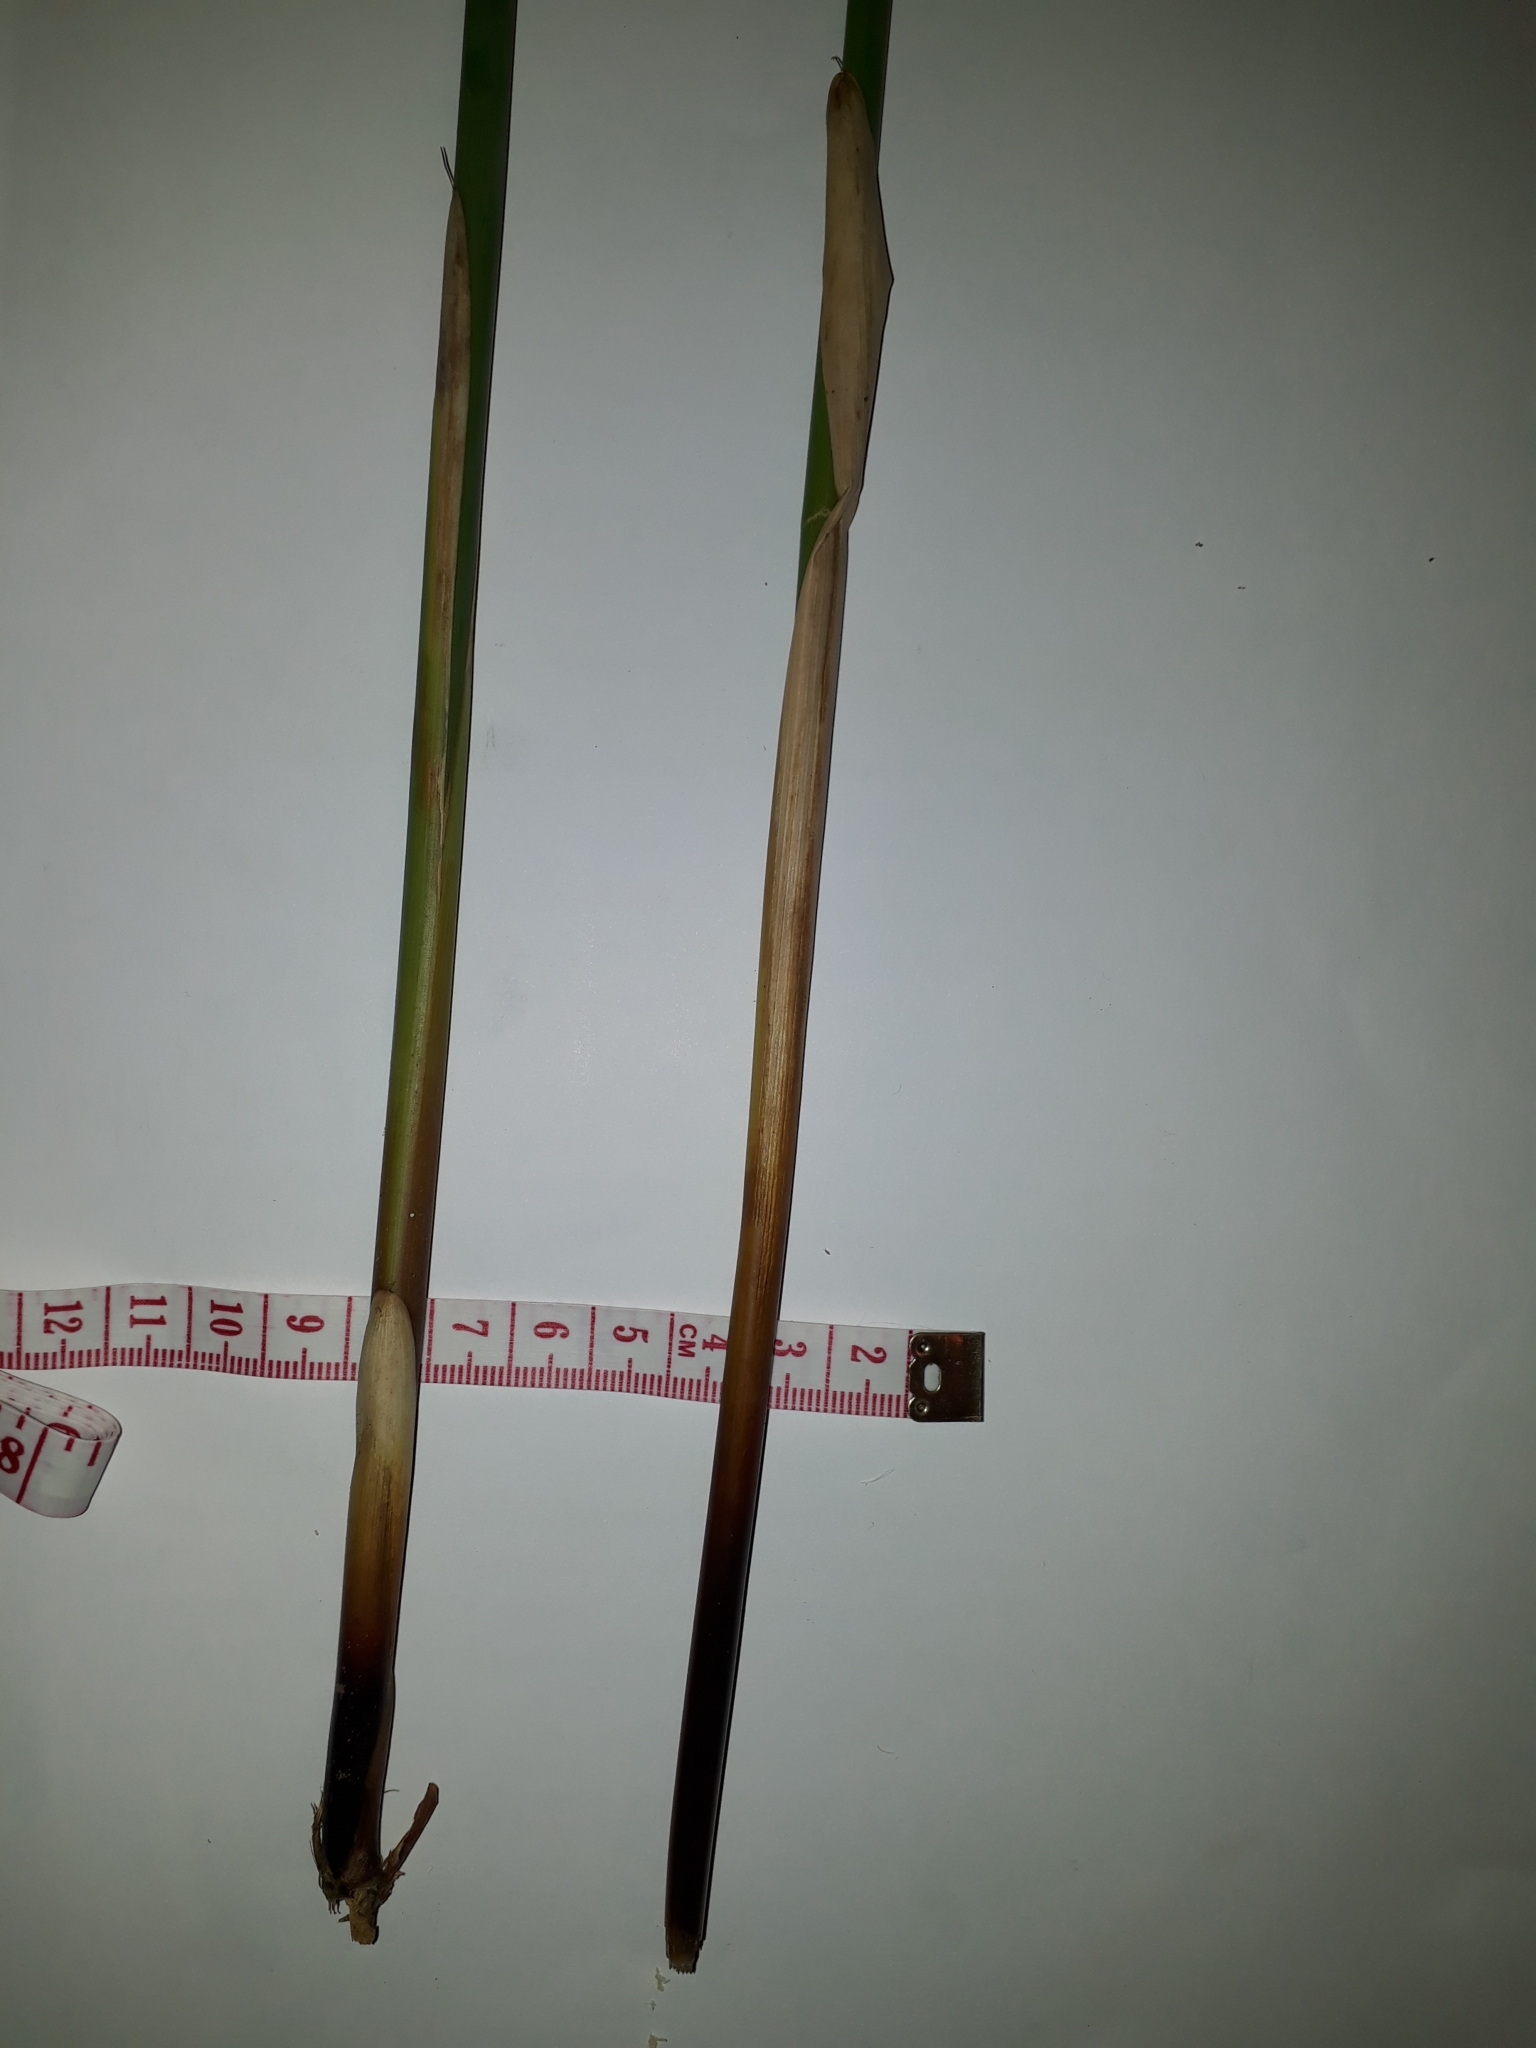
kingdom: Plantae
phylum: Tracheophyta
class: Liliopsida
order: Poales
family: Juncaceae
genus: Juncus
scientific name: Juncus pallidus
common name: Great soft-rush
